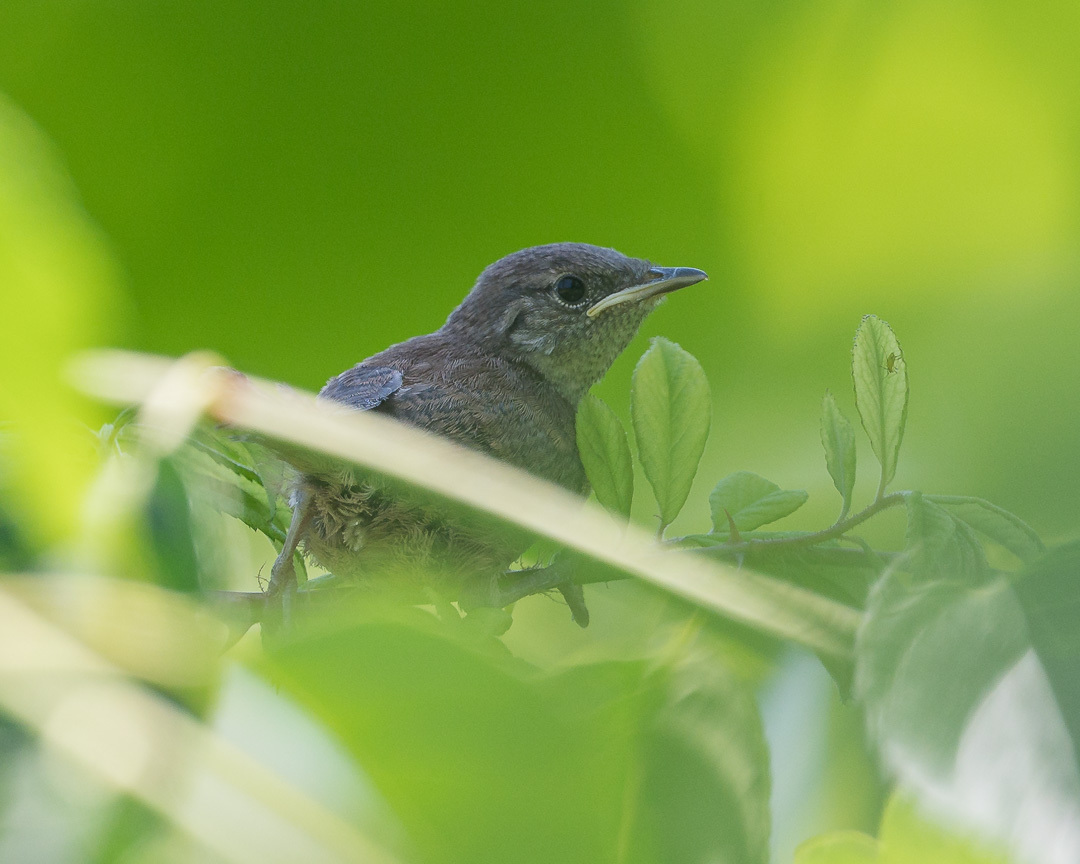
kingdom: Animalia
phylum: Chordata
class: Aves
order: Passeriformes
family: Troglodytidae
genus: Troglodytes
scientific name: Troglodytes aedon
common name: House wren
